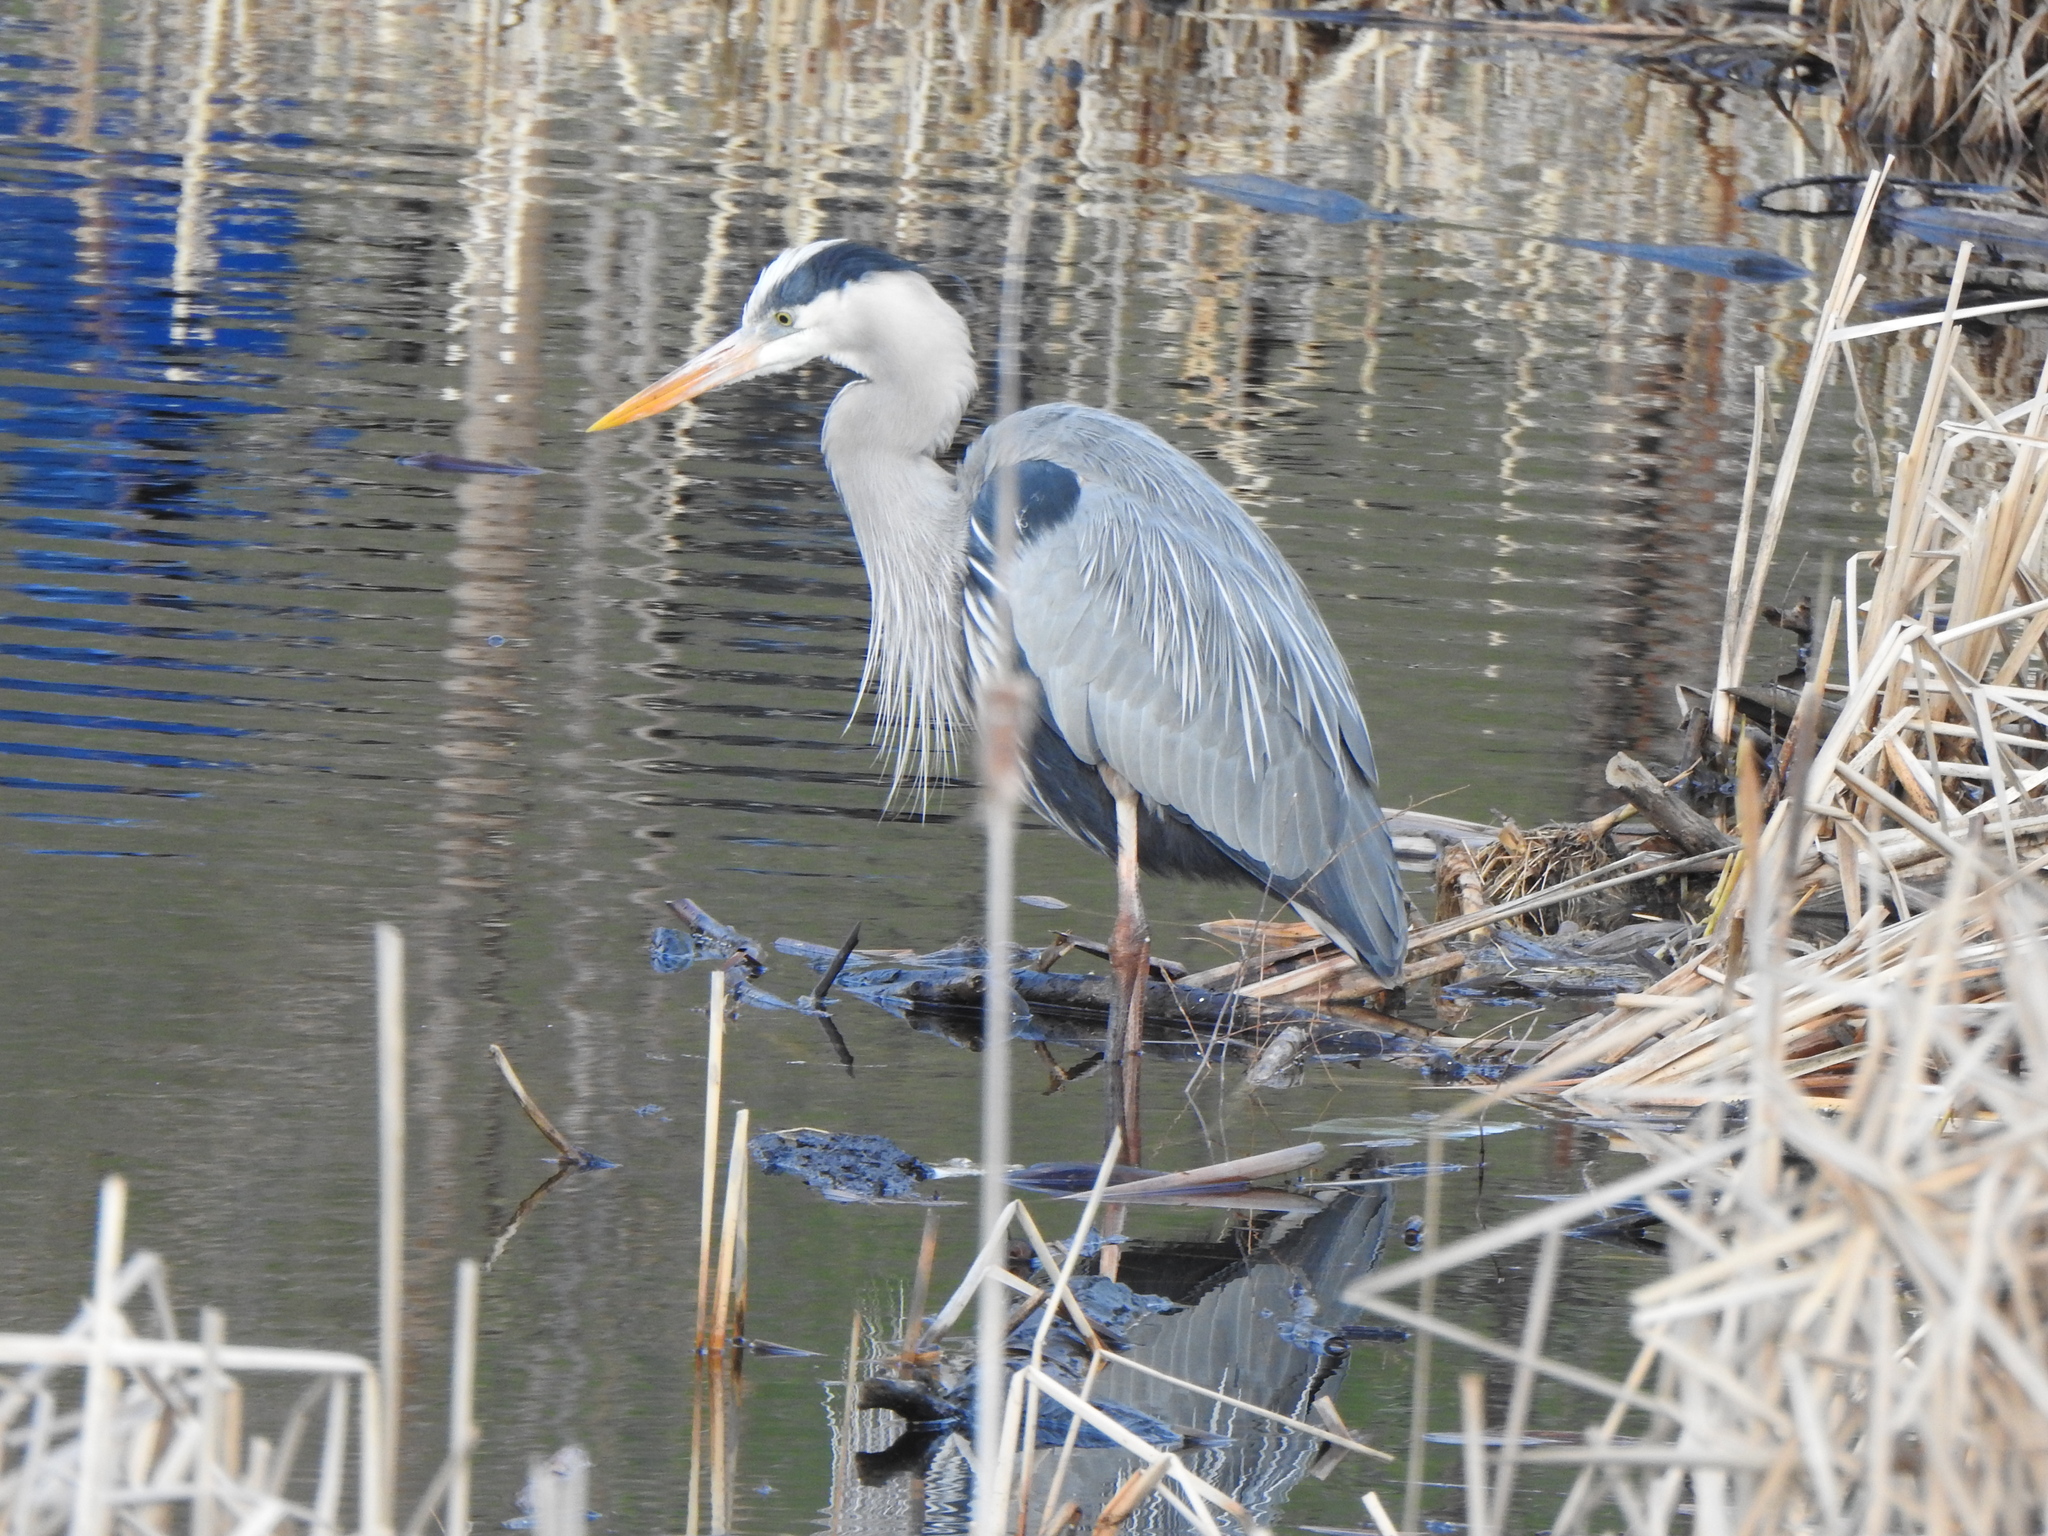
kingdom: Animalia
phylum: Chordata
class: Aves
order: Pelecaniformes
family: Ardeidae
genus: Ardea
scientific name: Ardea herodias
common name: Great blue heron
